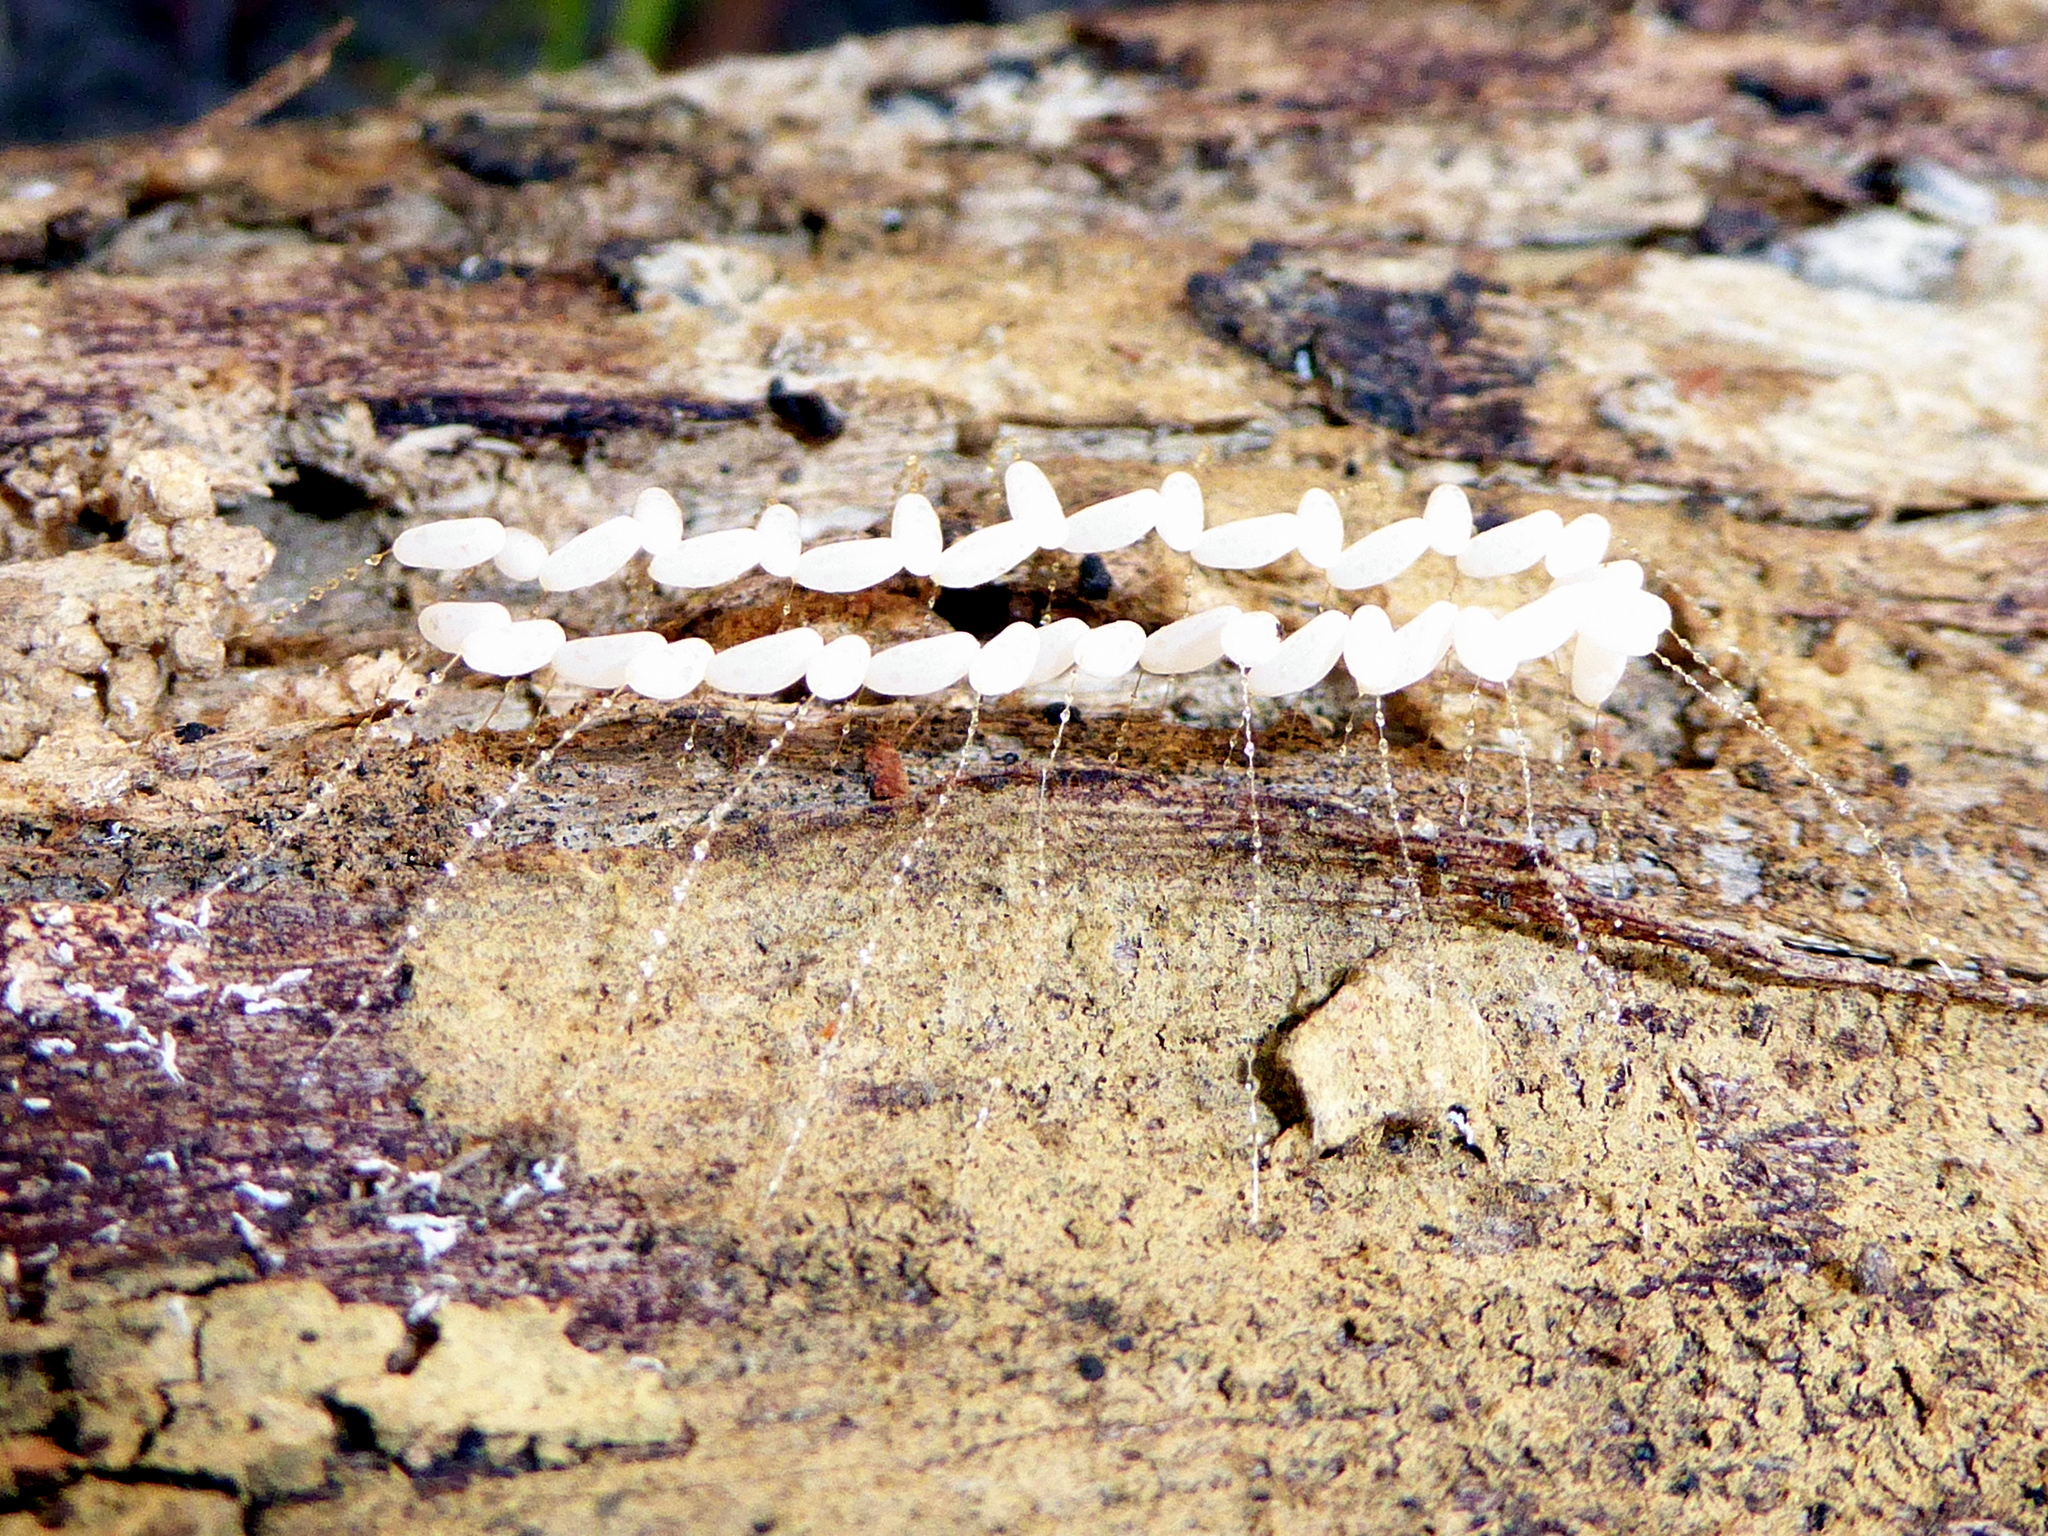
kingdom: Animalia
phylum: Arthropoda
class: Insecta
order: Neuroptera
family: Nymphidae
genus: Nymphes
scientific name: Nymphes myrmeleonoides
